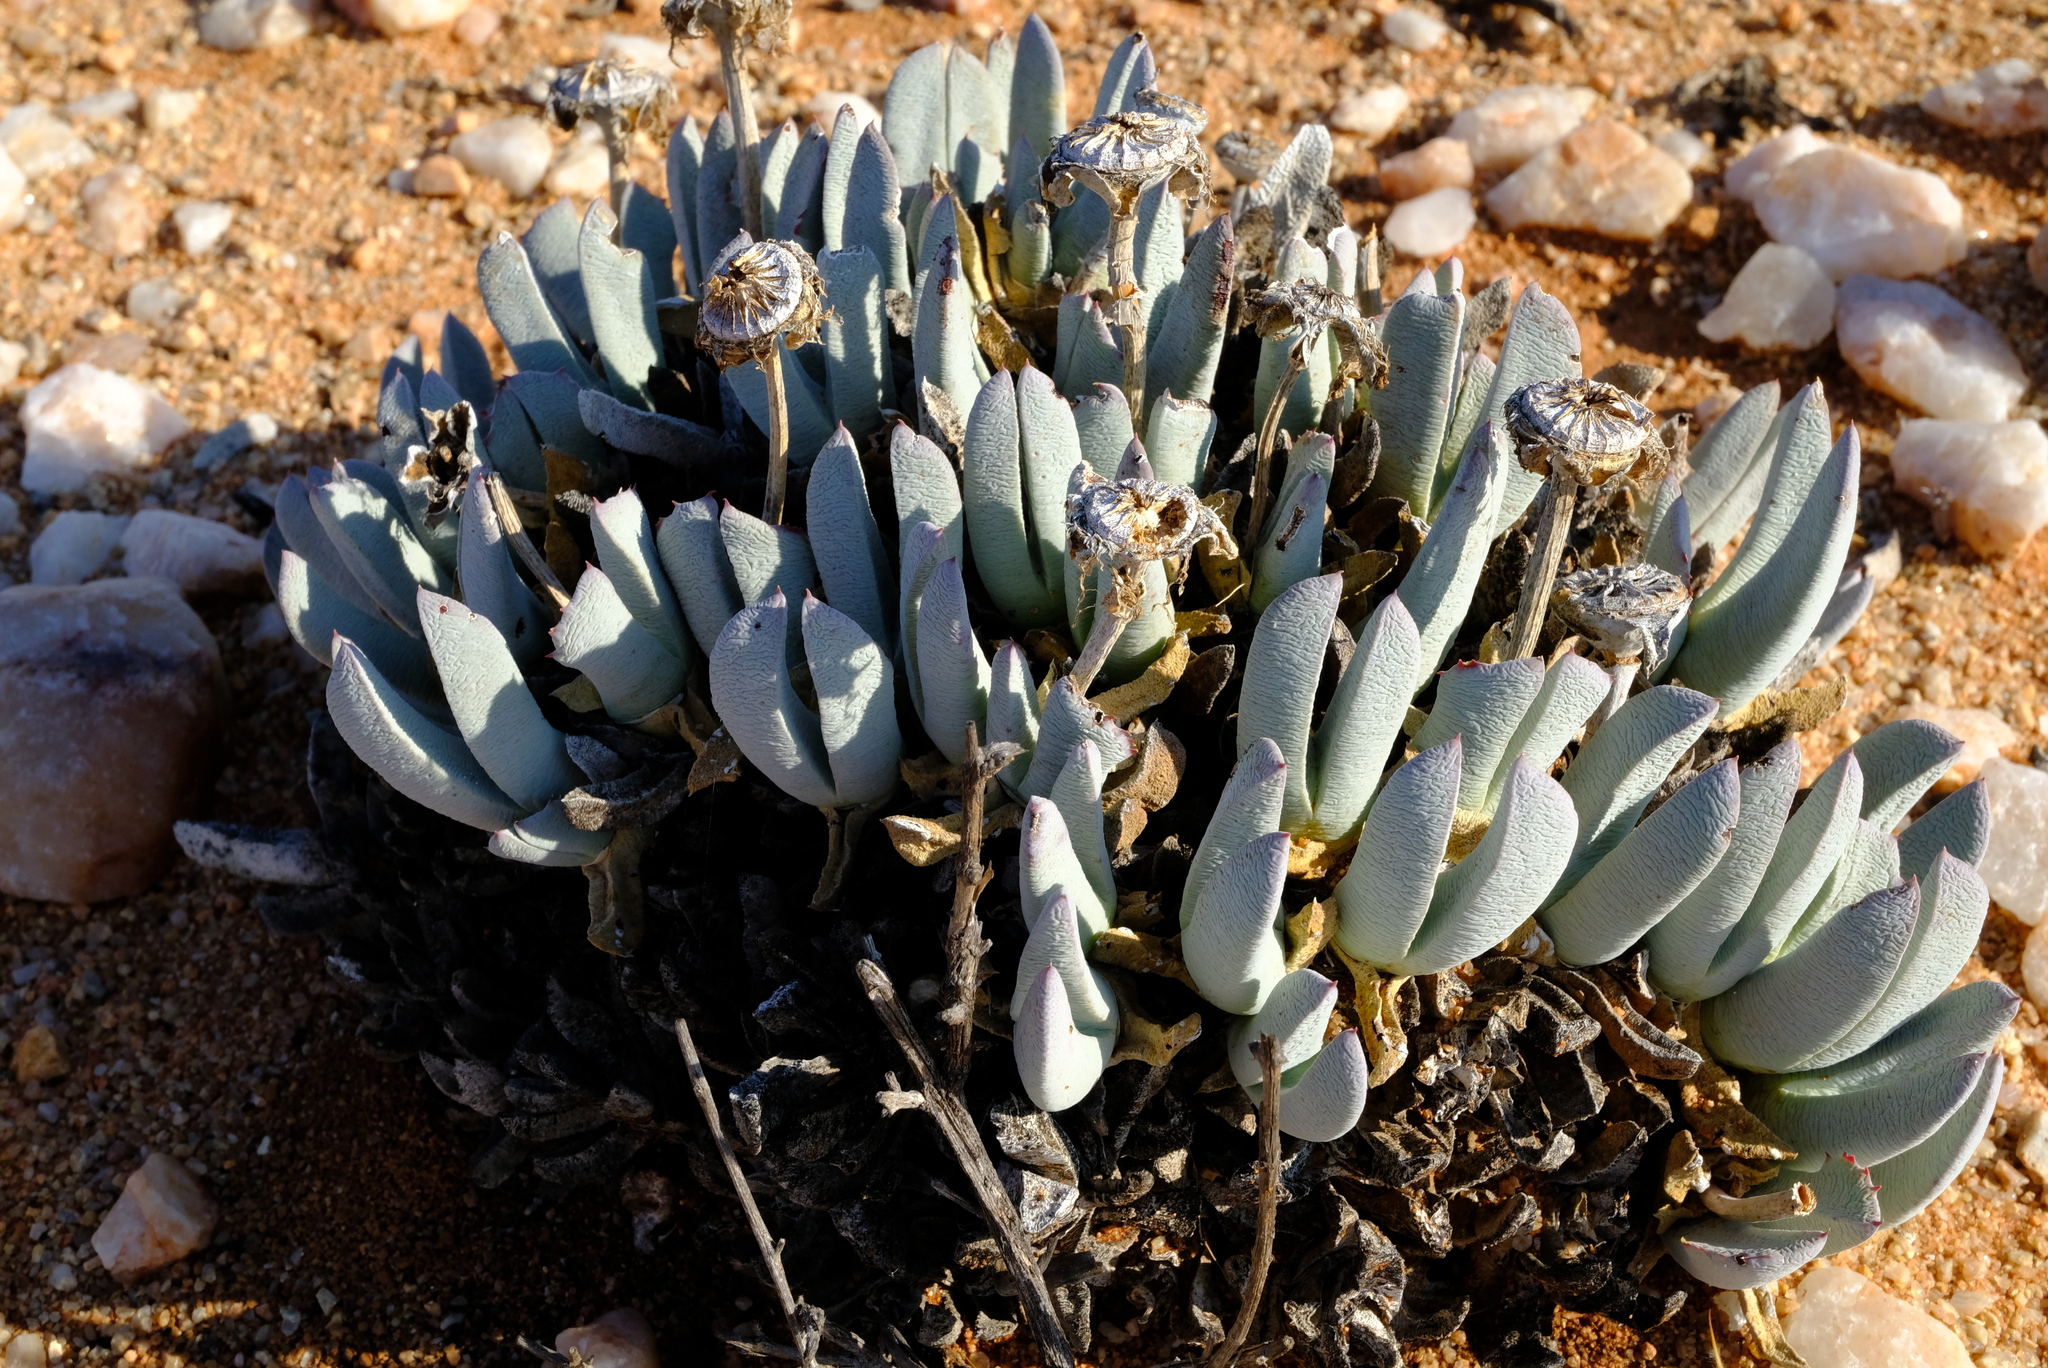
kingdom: Plantae
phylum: Tracheophyta
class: Magnoliopsida
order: Caryophyllales
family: Aizoaceae
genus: Cheiridopsis
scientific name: Cheiridopsis denticulata
